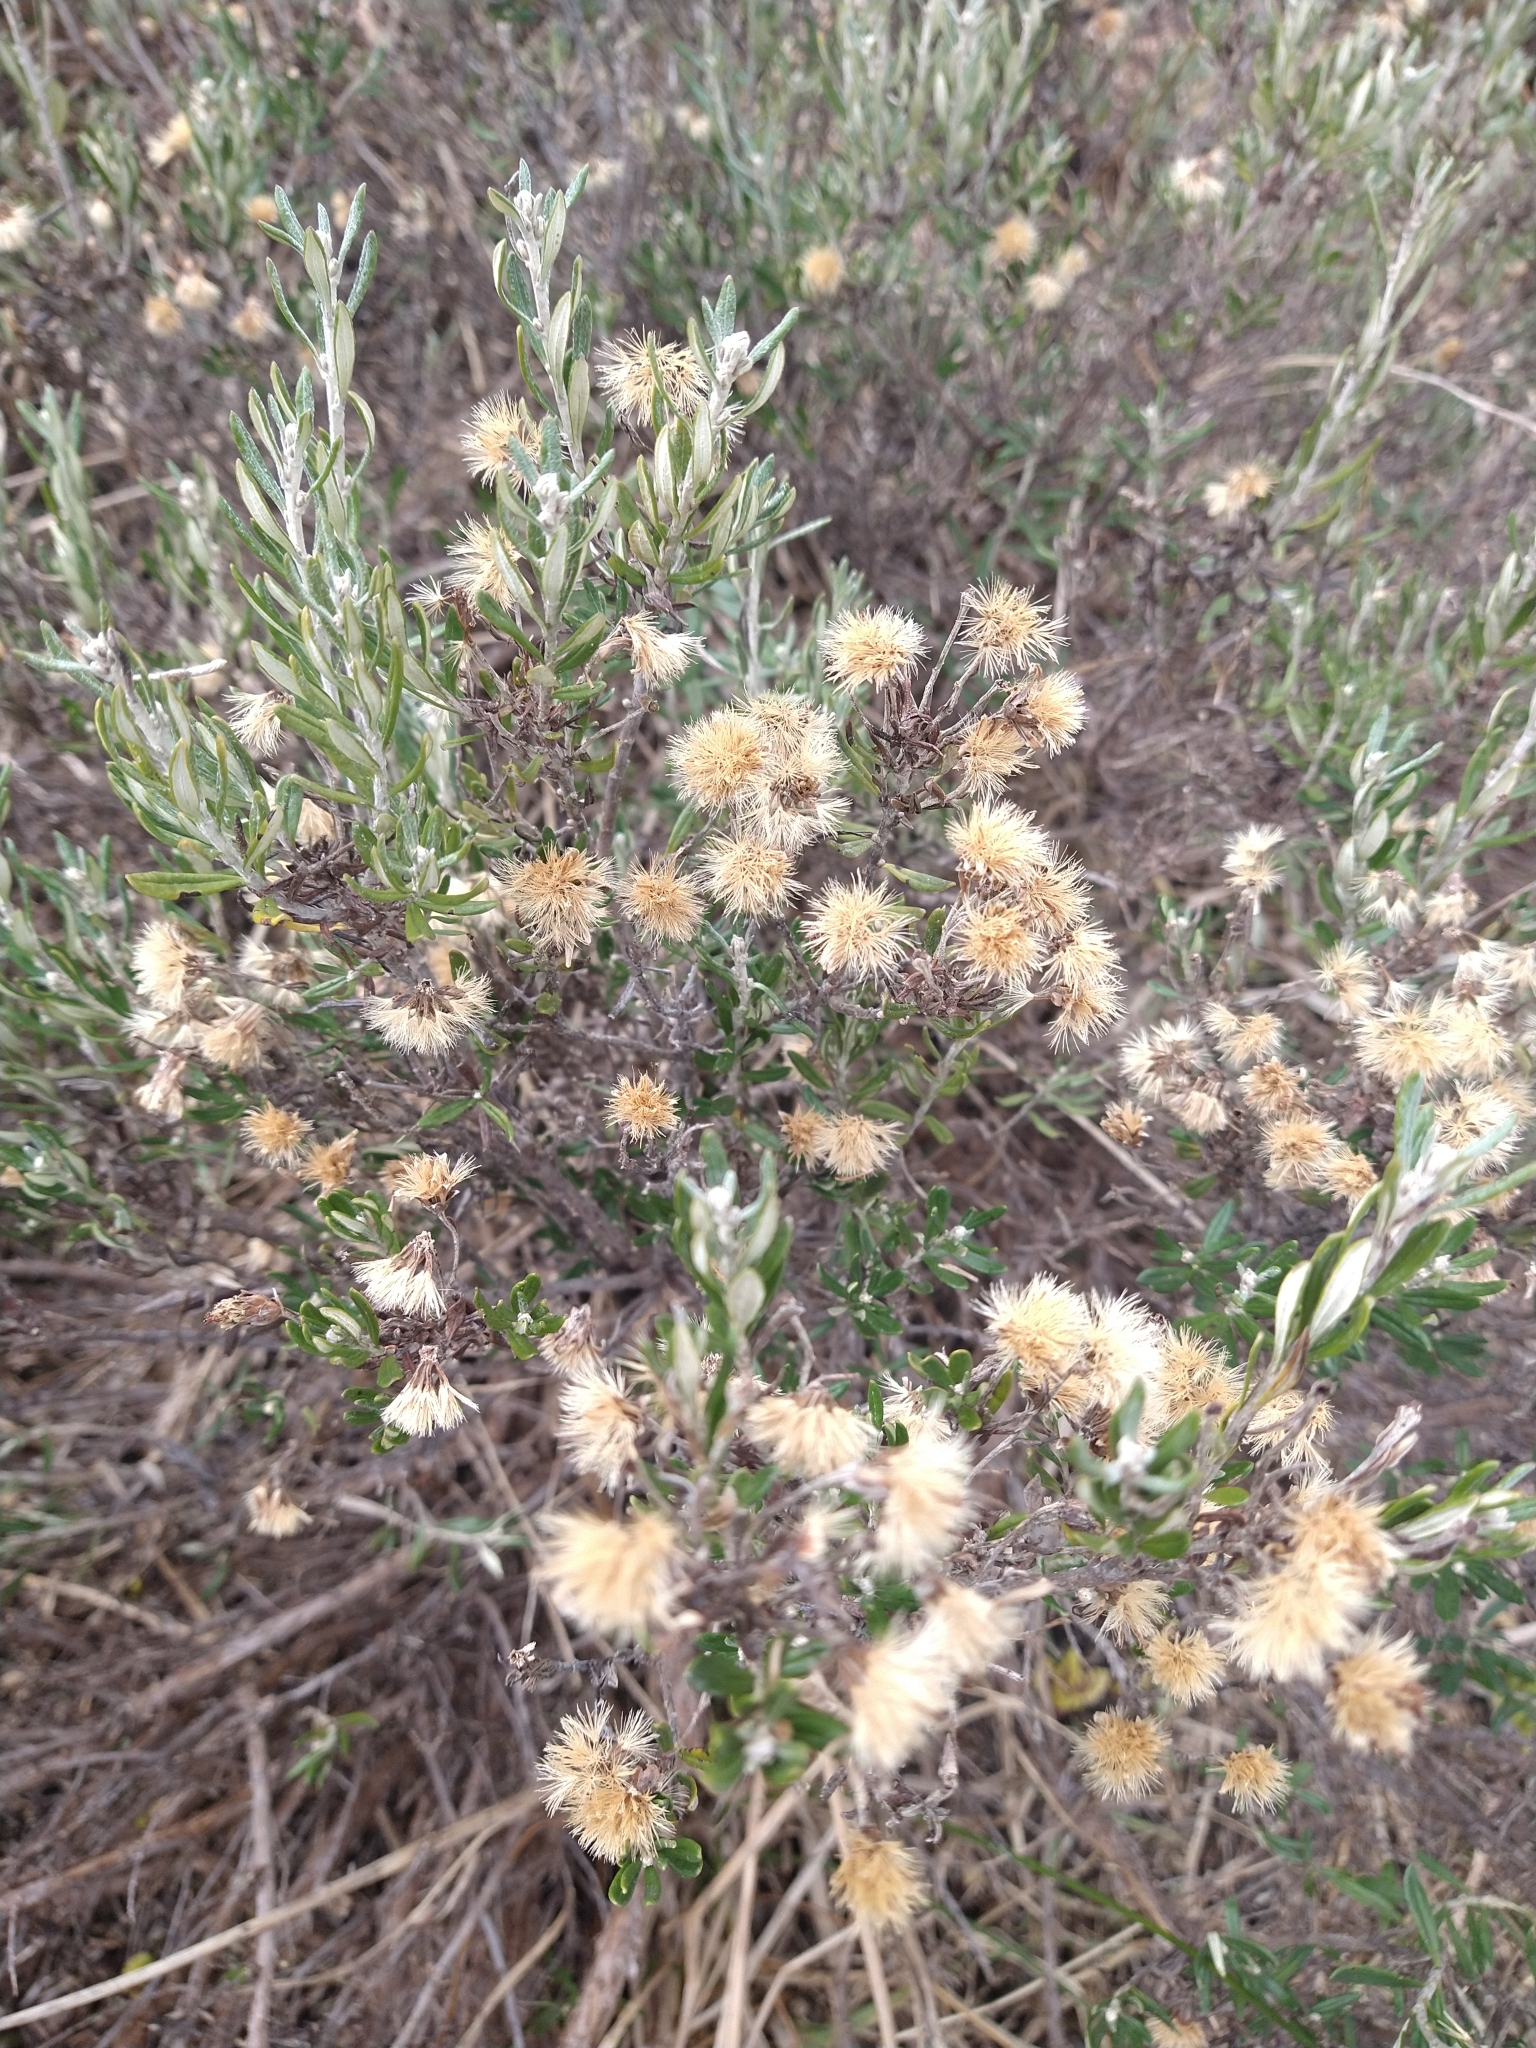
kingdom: Plantae
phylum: Tracheophyta
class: Magnoliopsida
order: Asterales
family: Asteraceae
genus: Chiliotrichum
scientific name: Chiliotrichum diffusum
